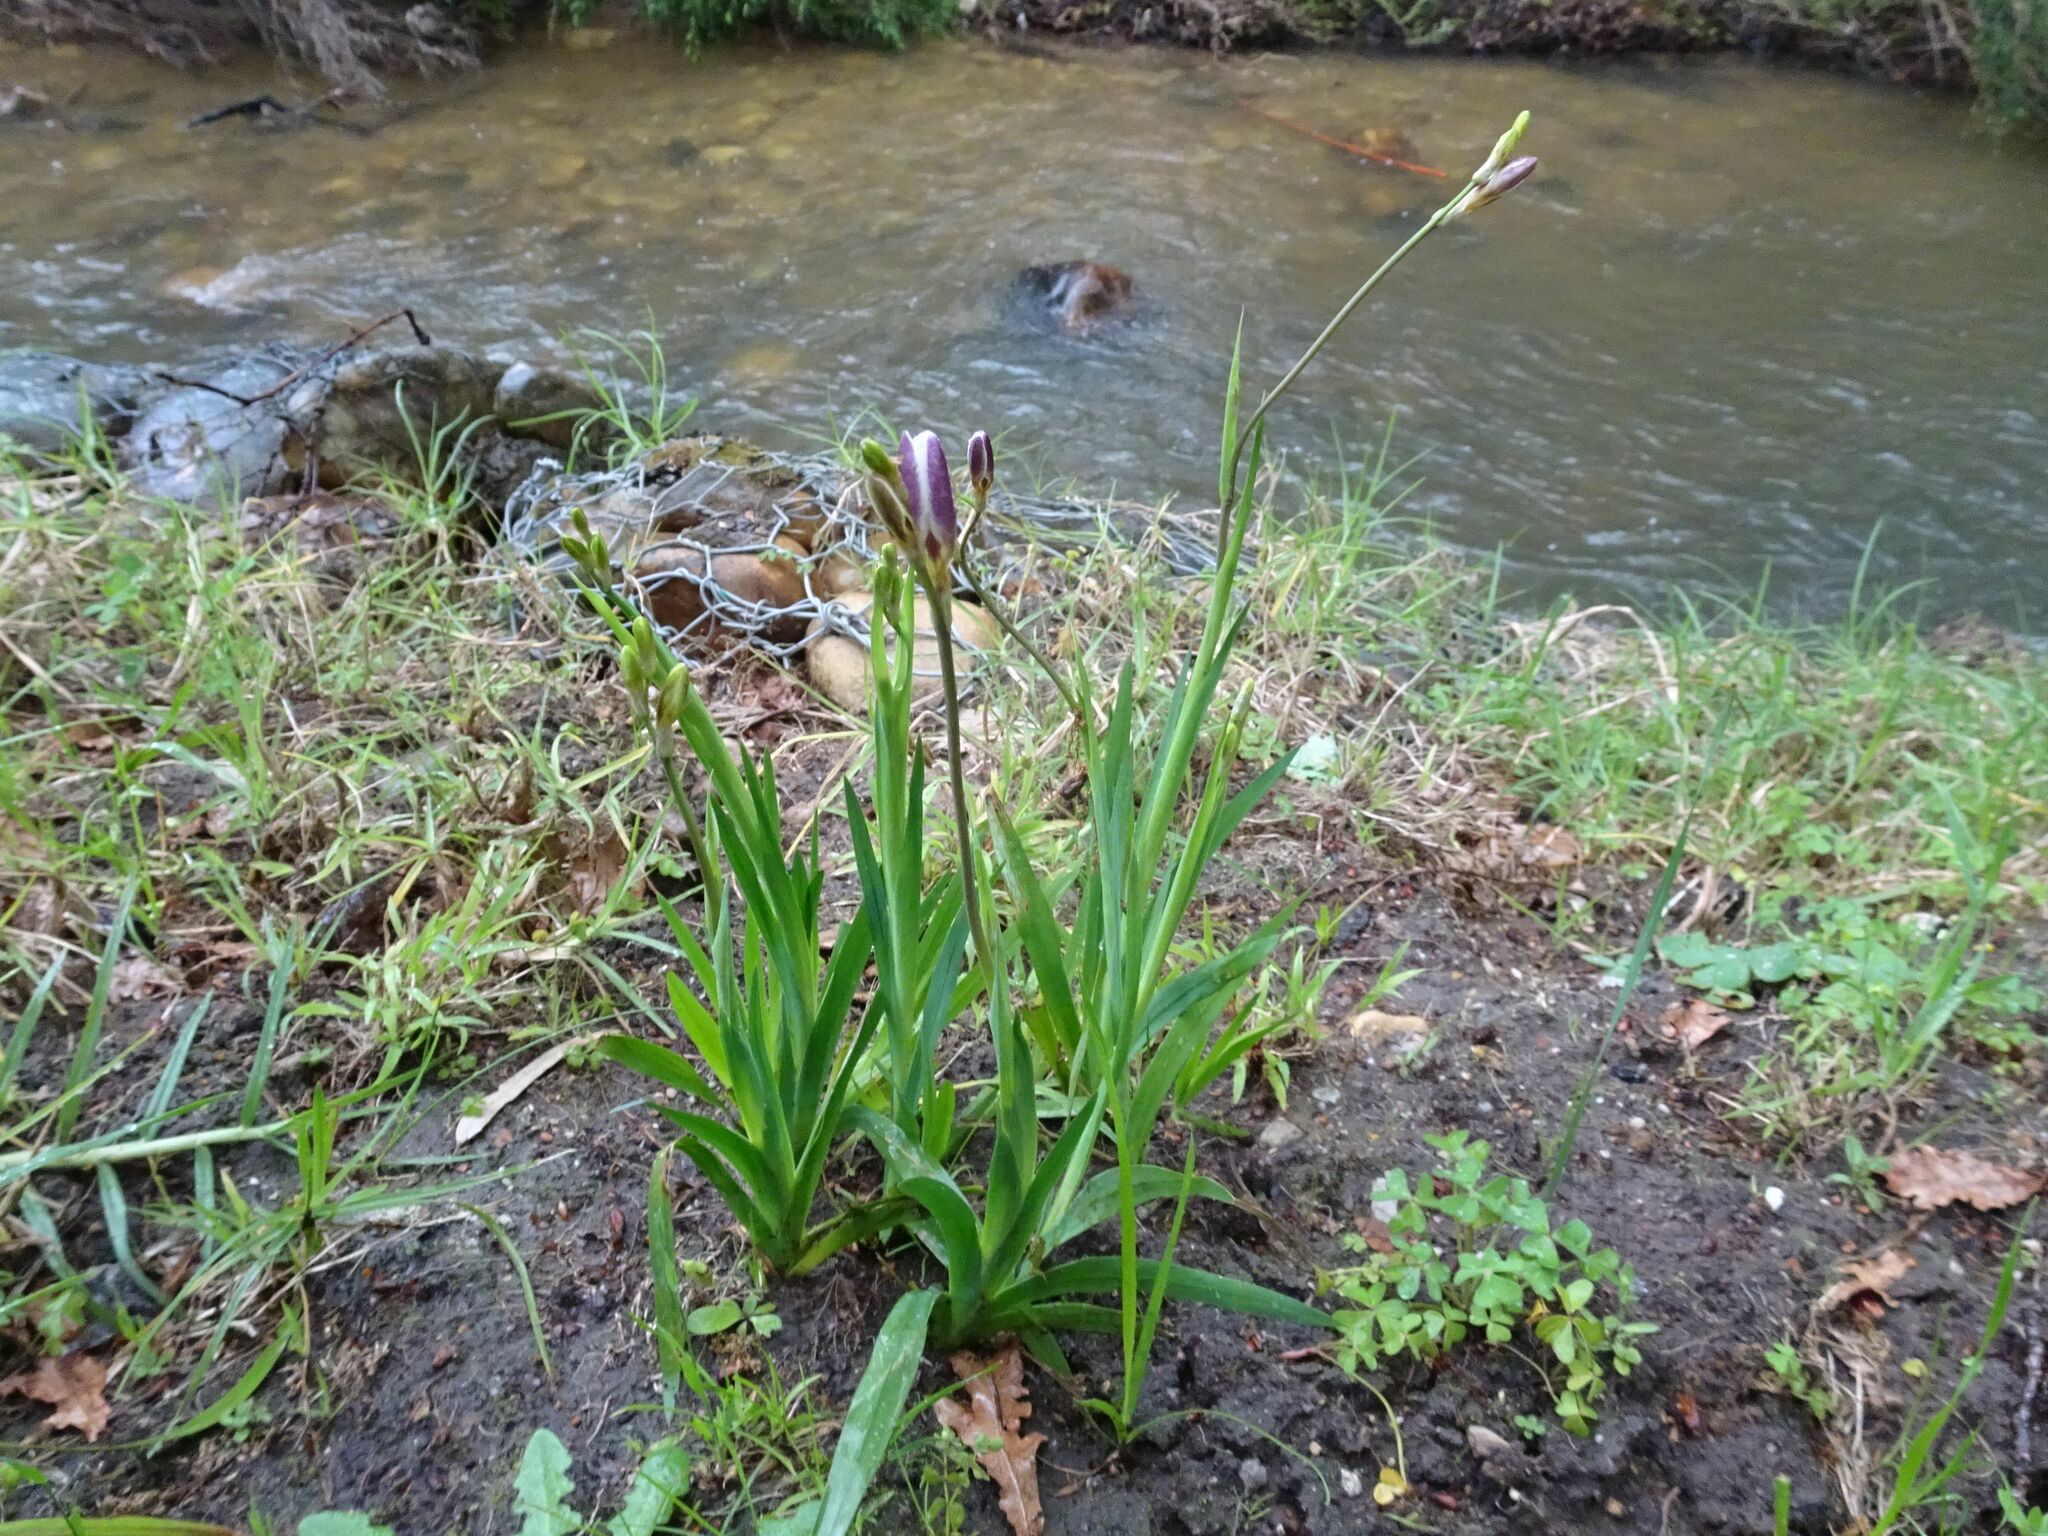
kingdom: Plantae
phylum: Tracheophyta
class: Liliopsida
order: Asparagales
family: Iridaceae
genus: Sparaxis
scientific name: Sparaxis bulbifera
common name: Harlequin-flower
